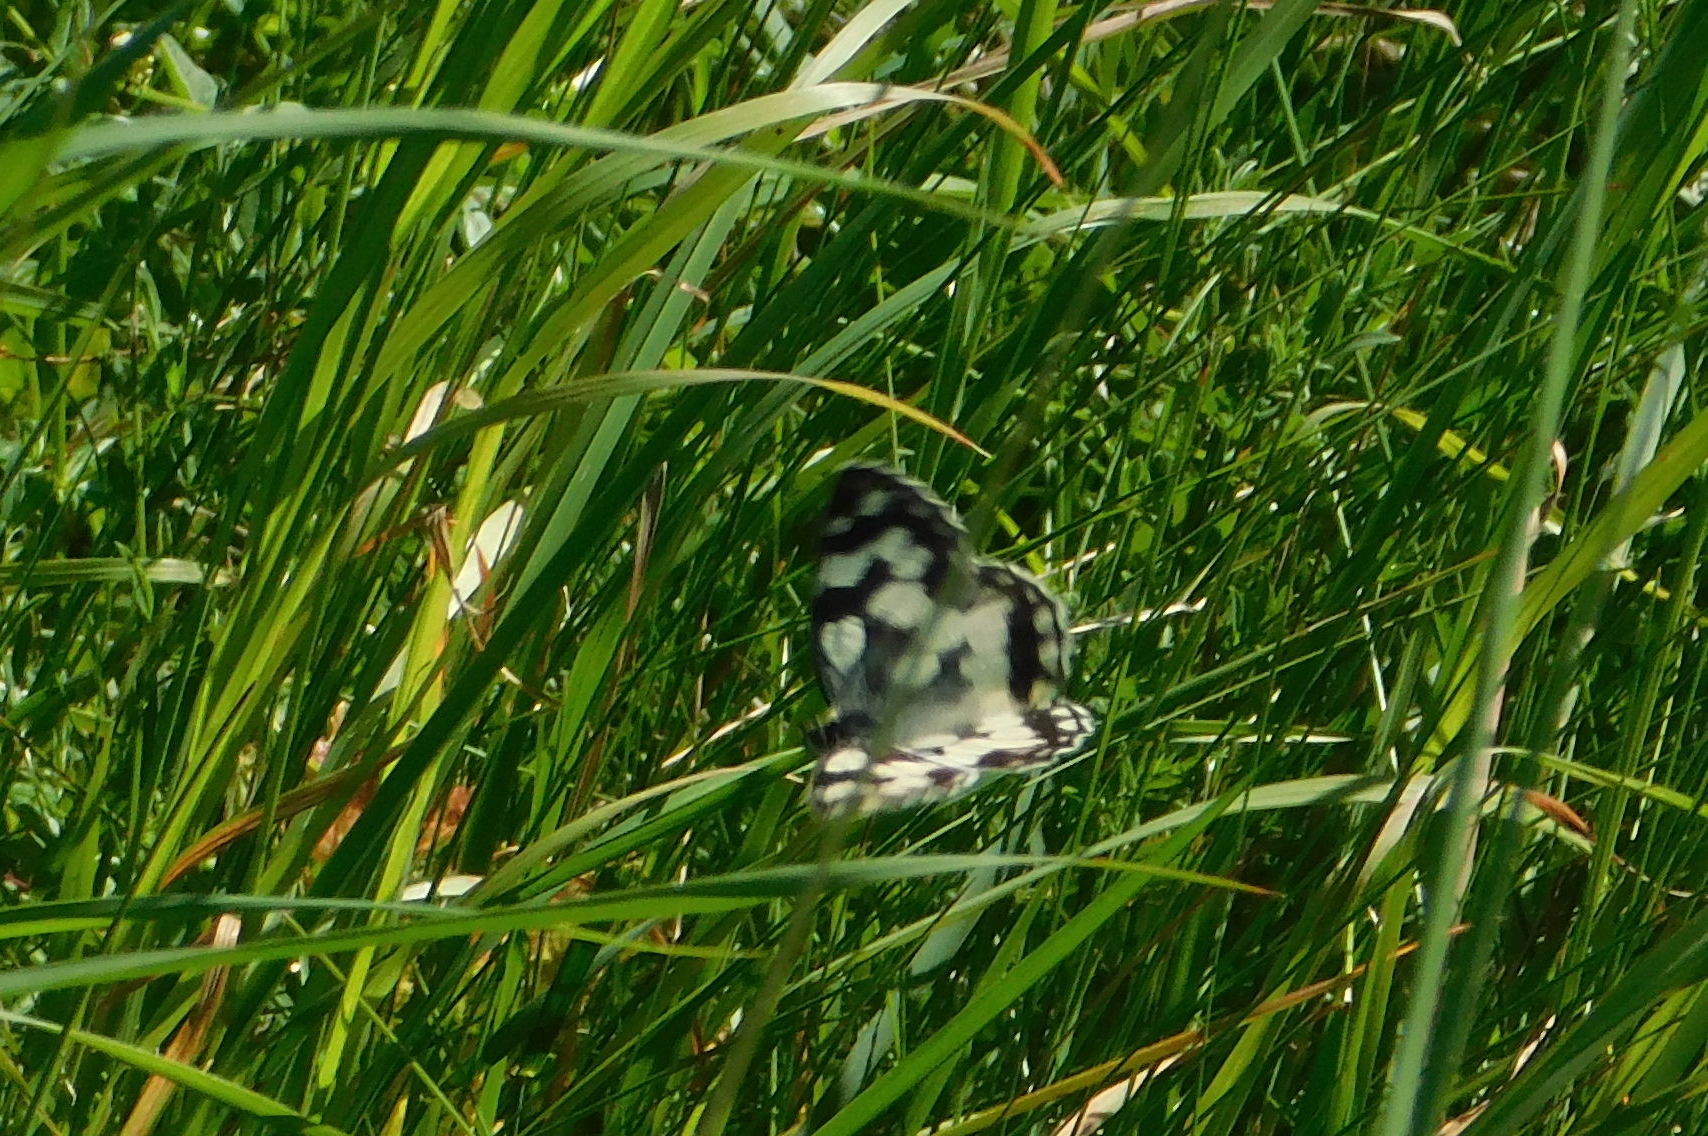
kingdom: Animalia
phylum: Arthropoda
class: Insecta
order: Lepidoptera
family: Nymphalidae
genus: Melanargia
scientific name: Melanargia galathea
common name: Marbled white
